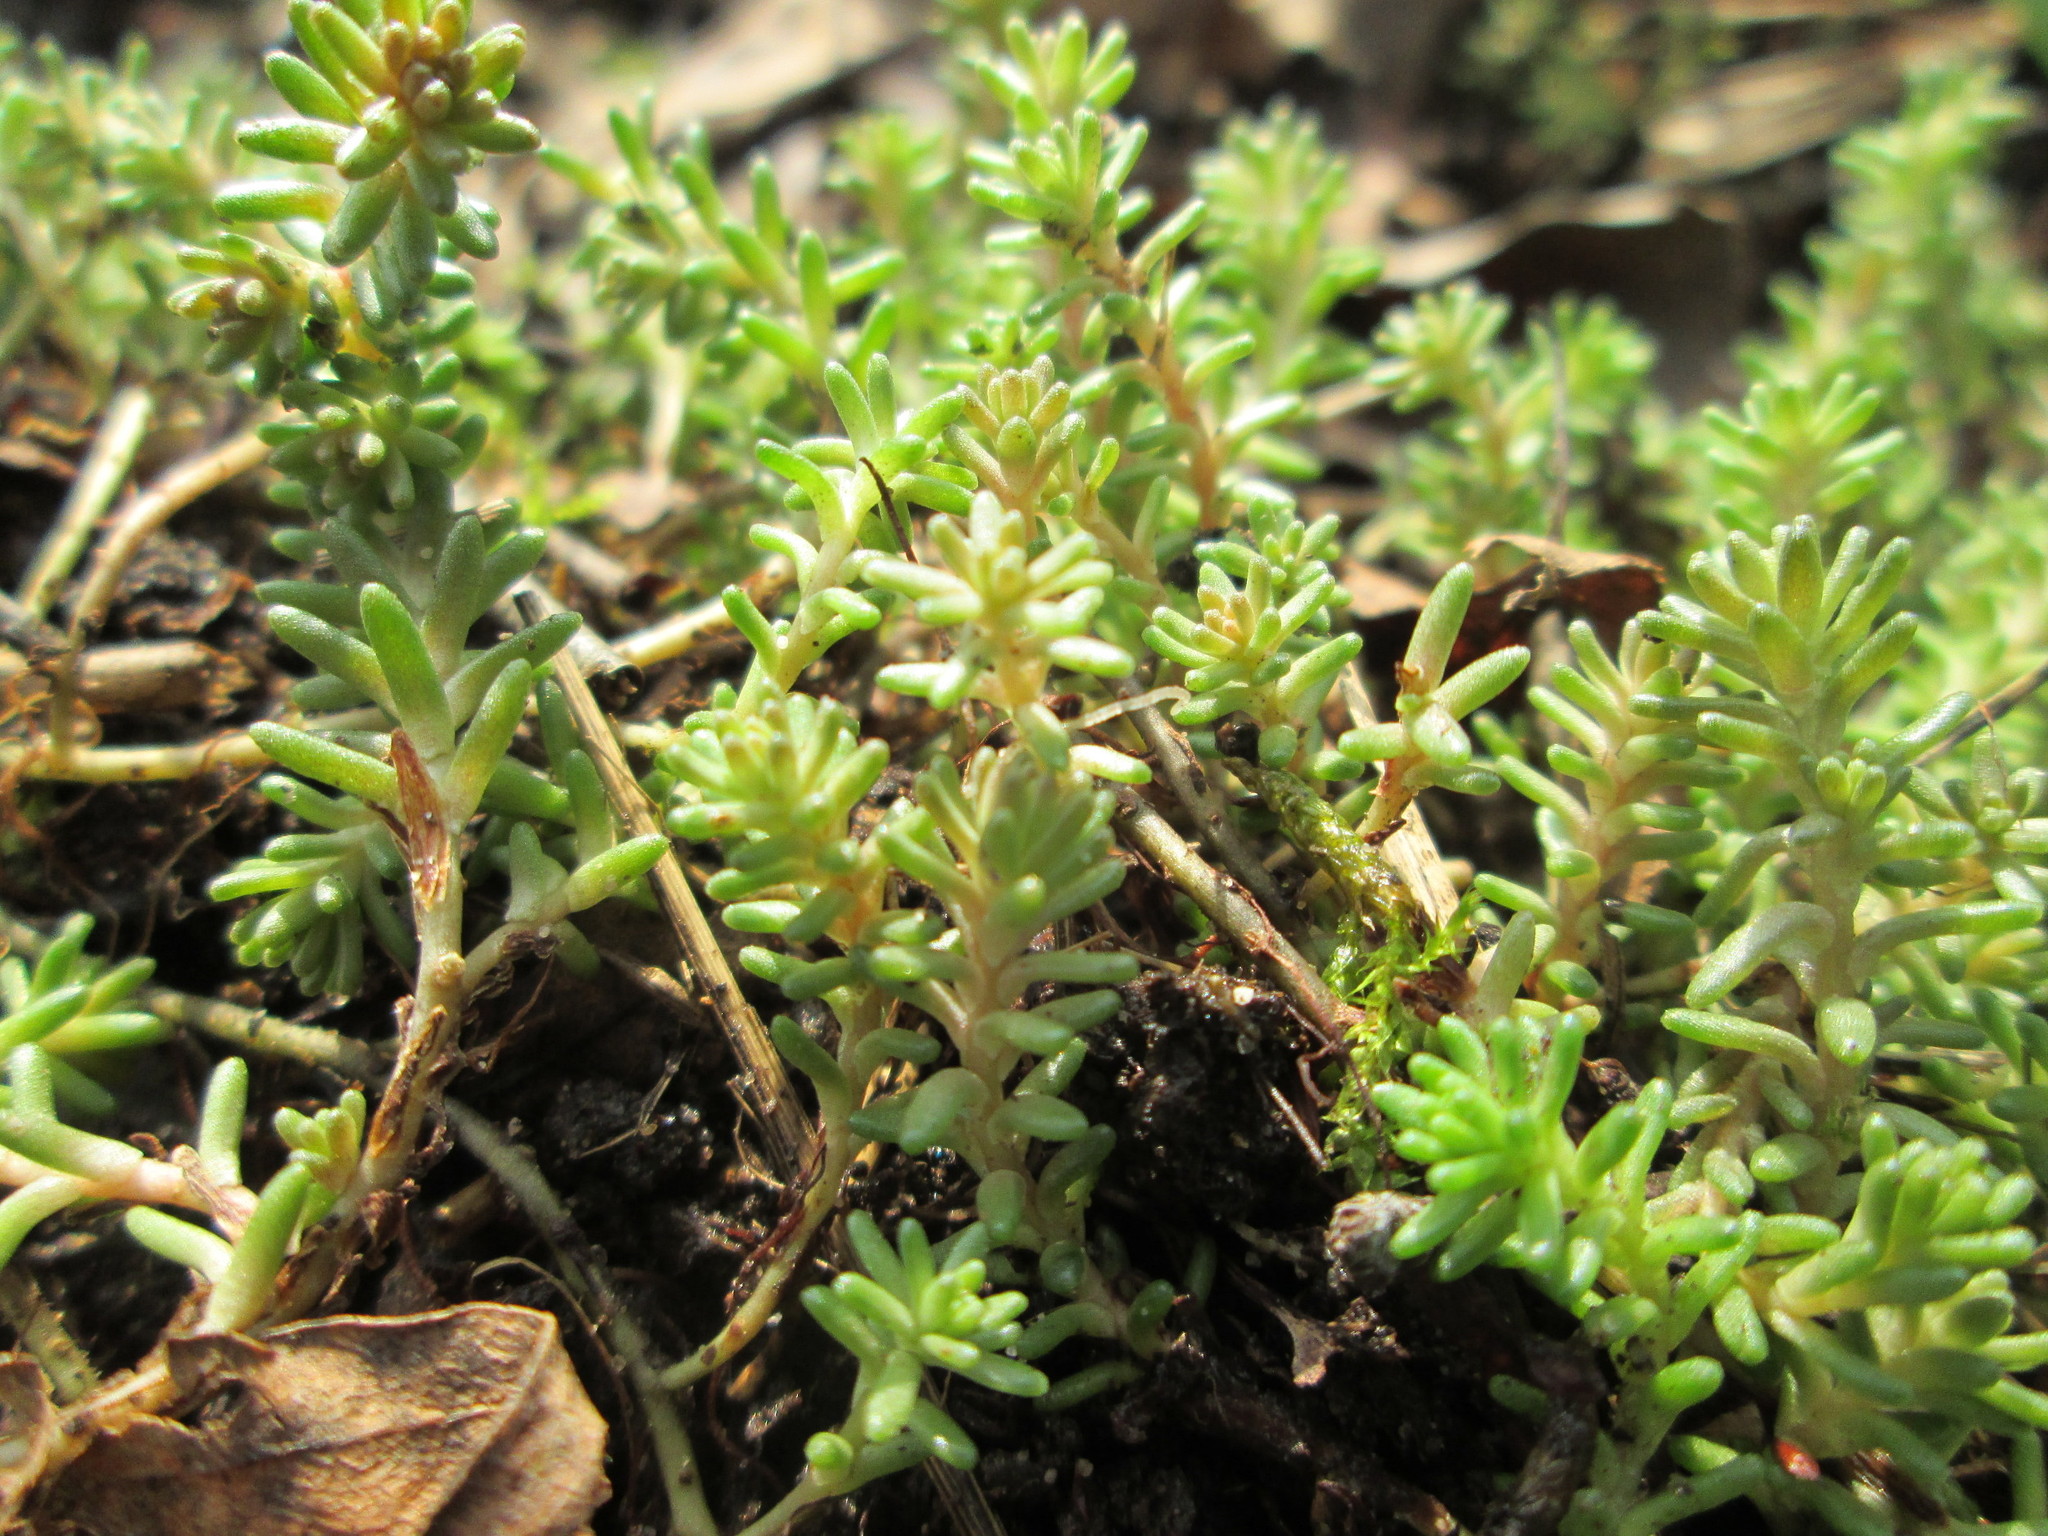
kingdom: Plantae
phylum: Tracheophyta
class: Magnoliopsida
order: Saxifragales
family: Crassulaceae
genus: Sedum
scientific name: Sedum sexangulare
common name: Tasteless stonecrop
